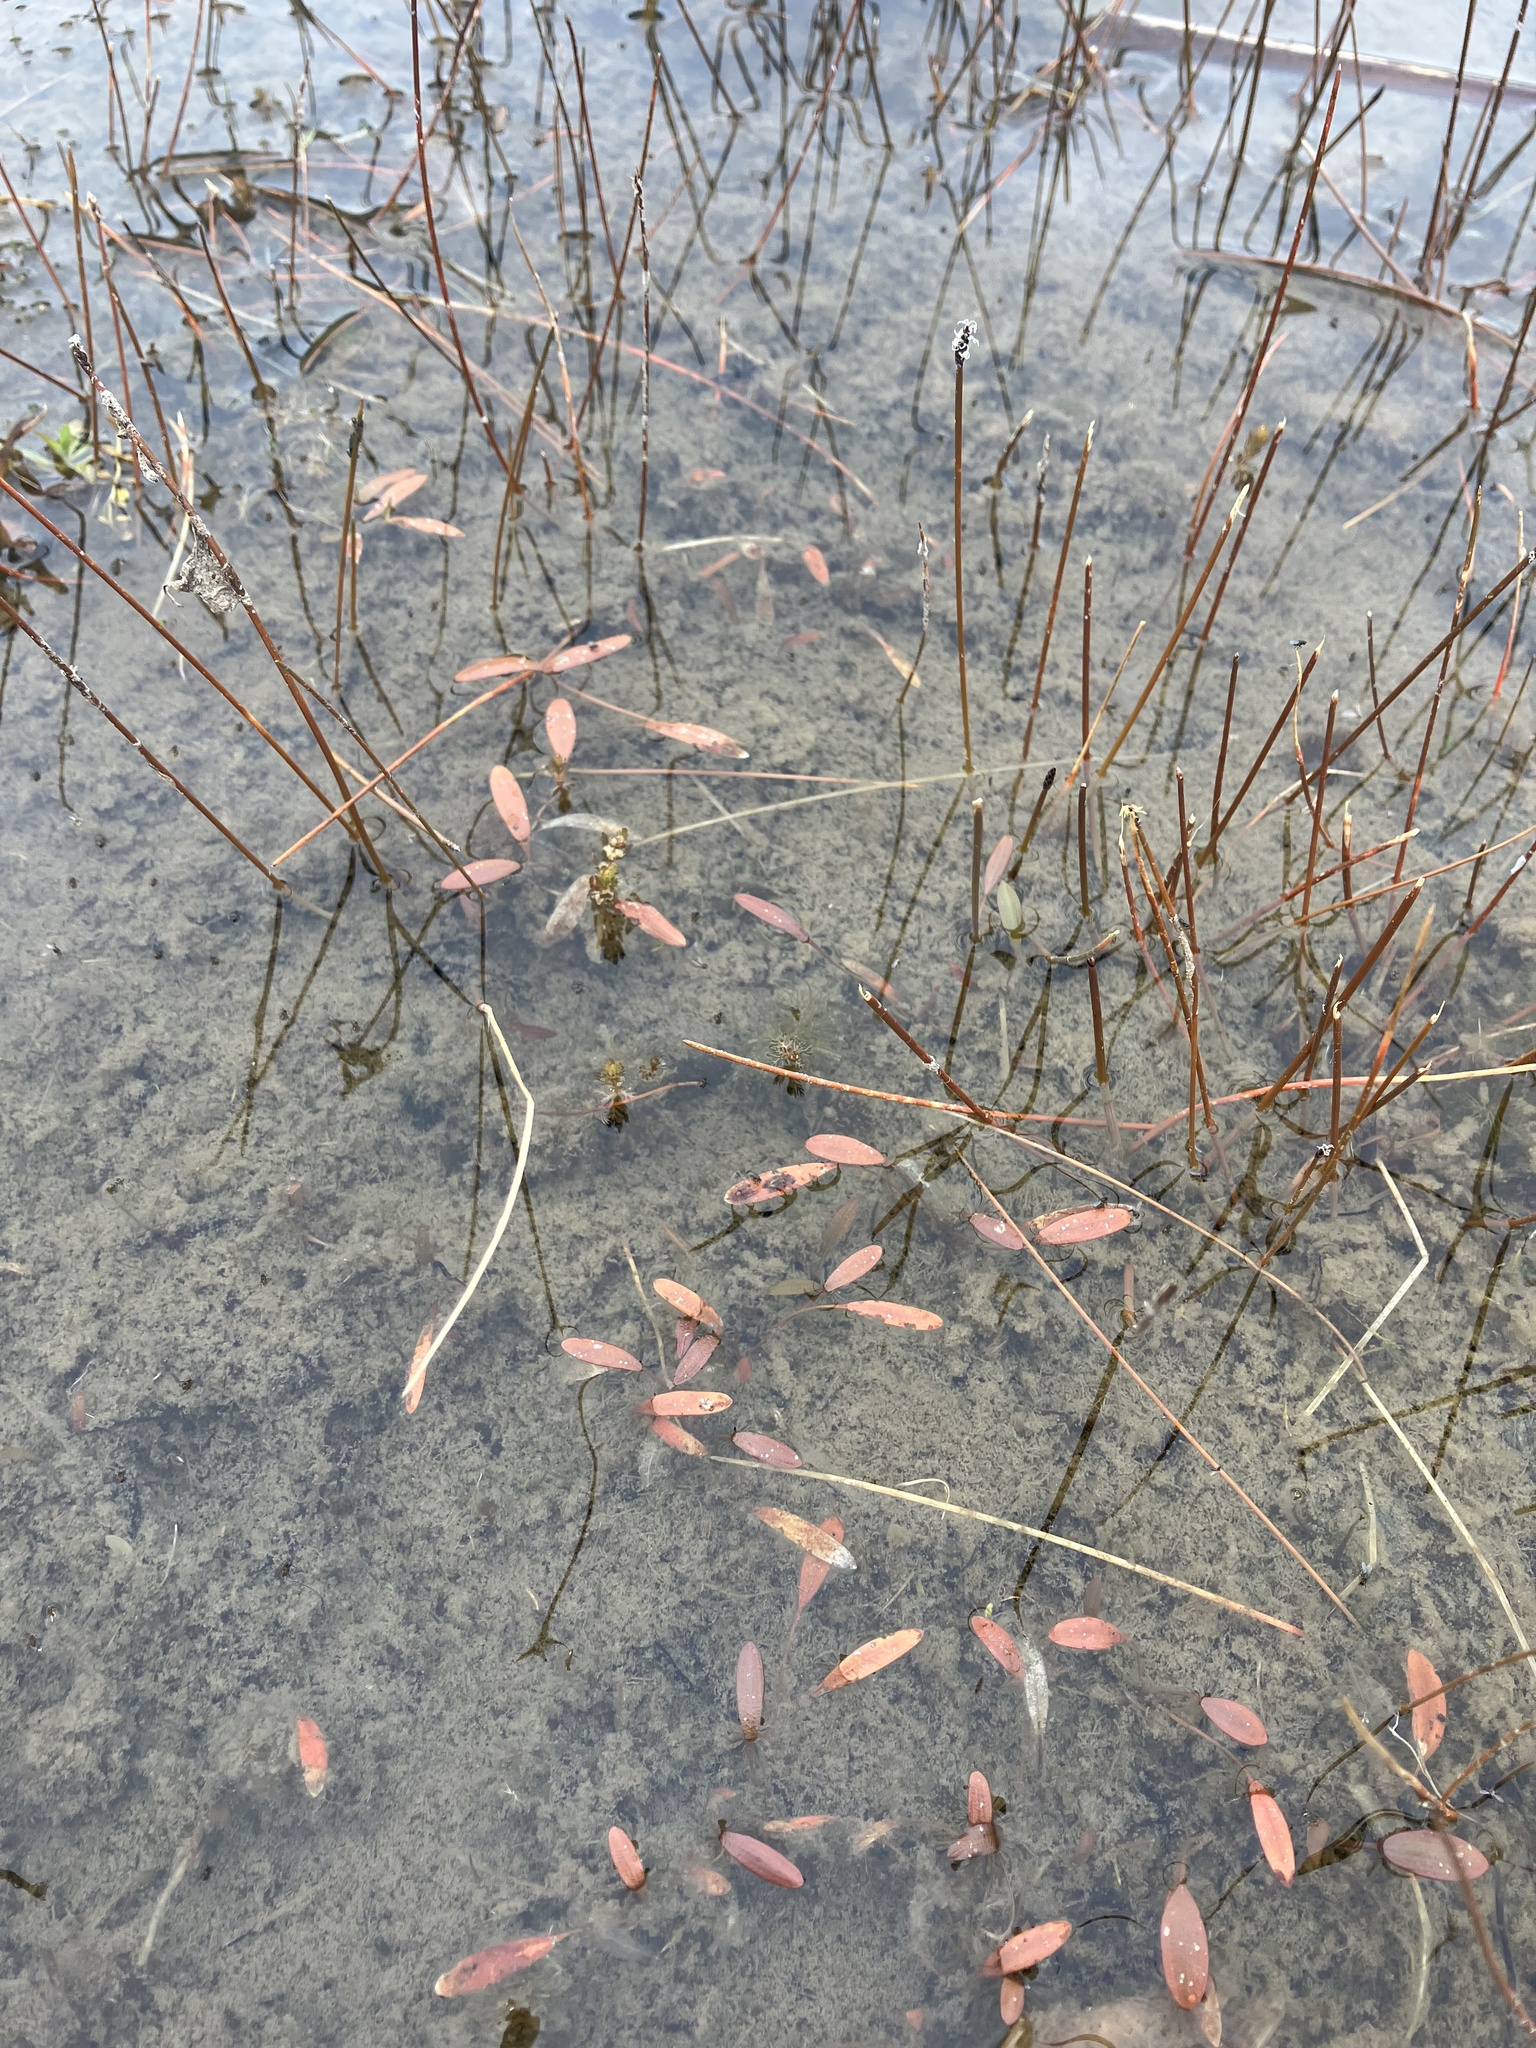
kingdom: Plantae
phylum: Tracheophyta
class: Liliopsida
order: Alismatales
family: Potamogetonaceae
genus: Potamogeton
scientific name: Potamogeton cheesemanii
